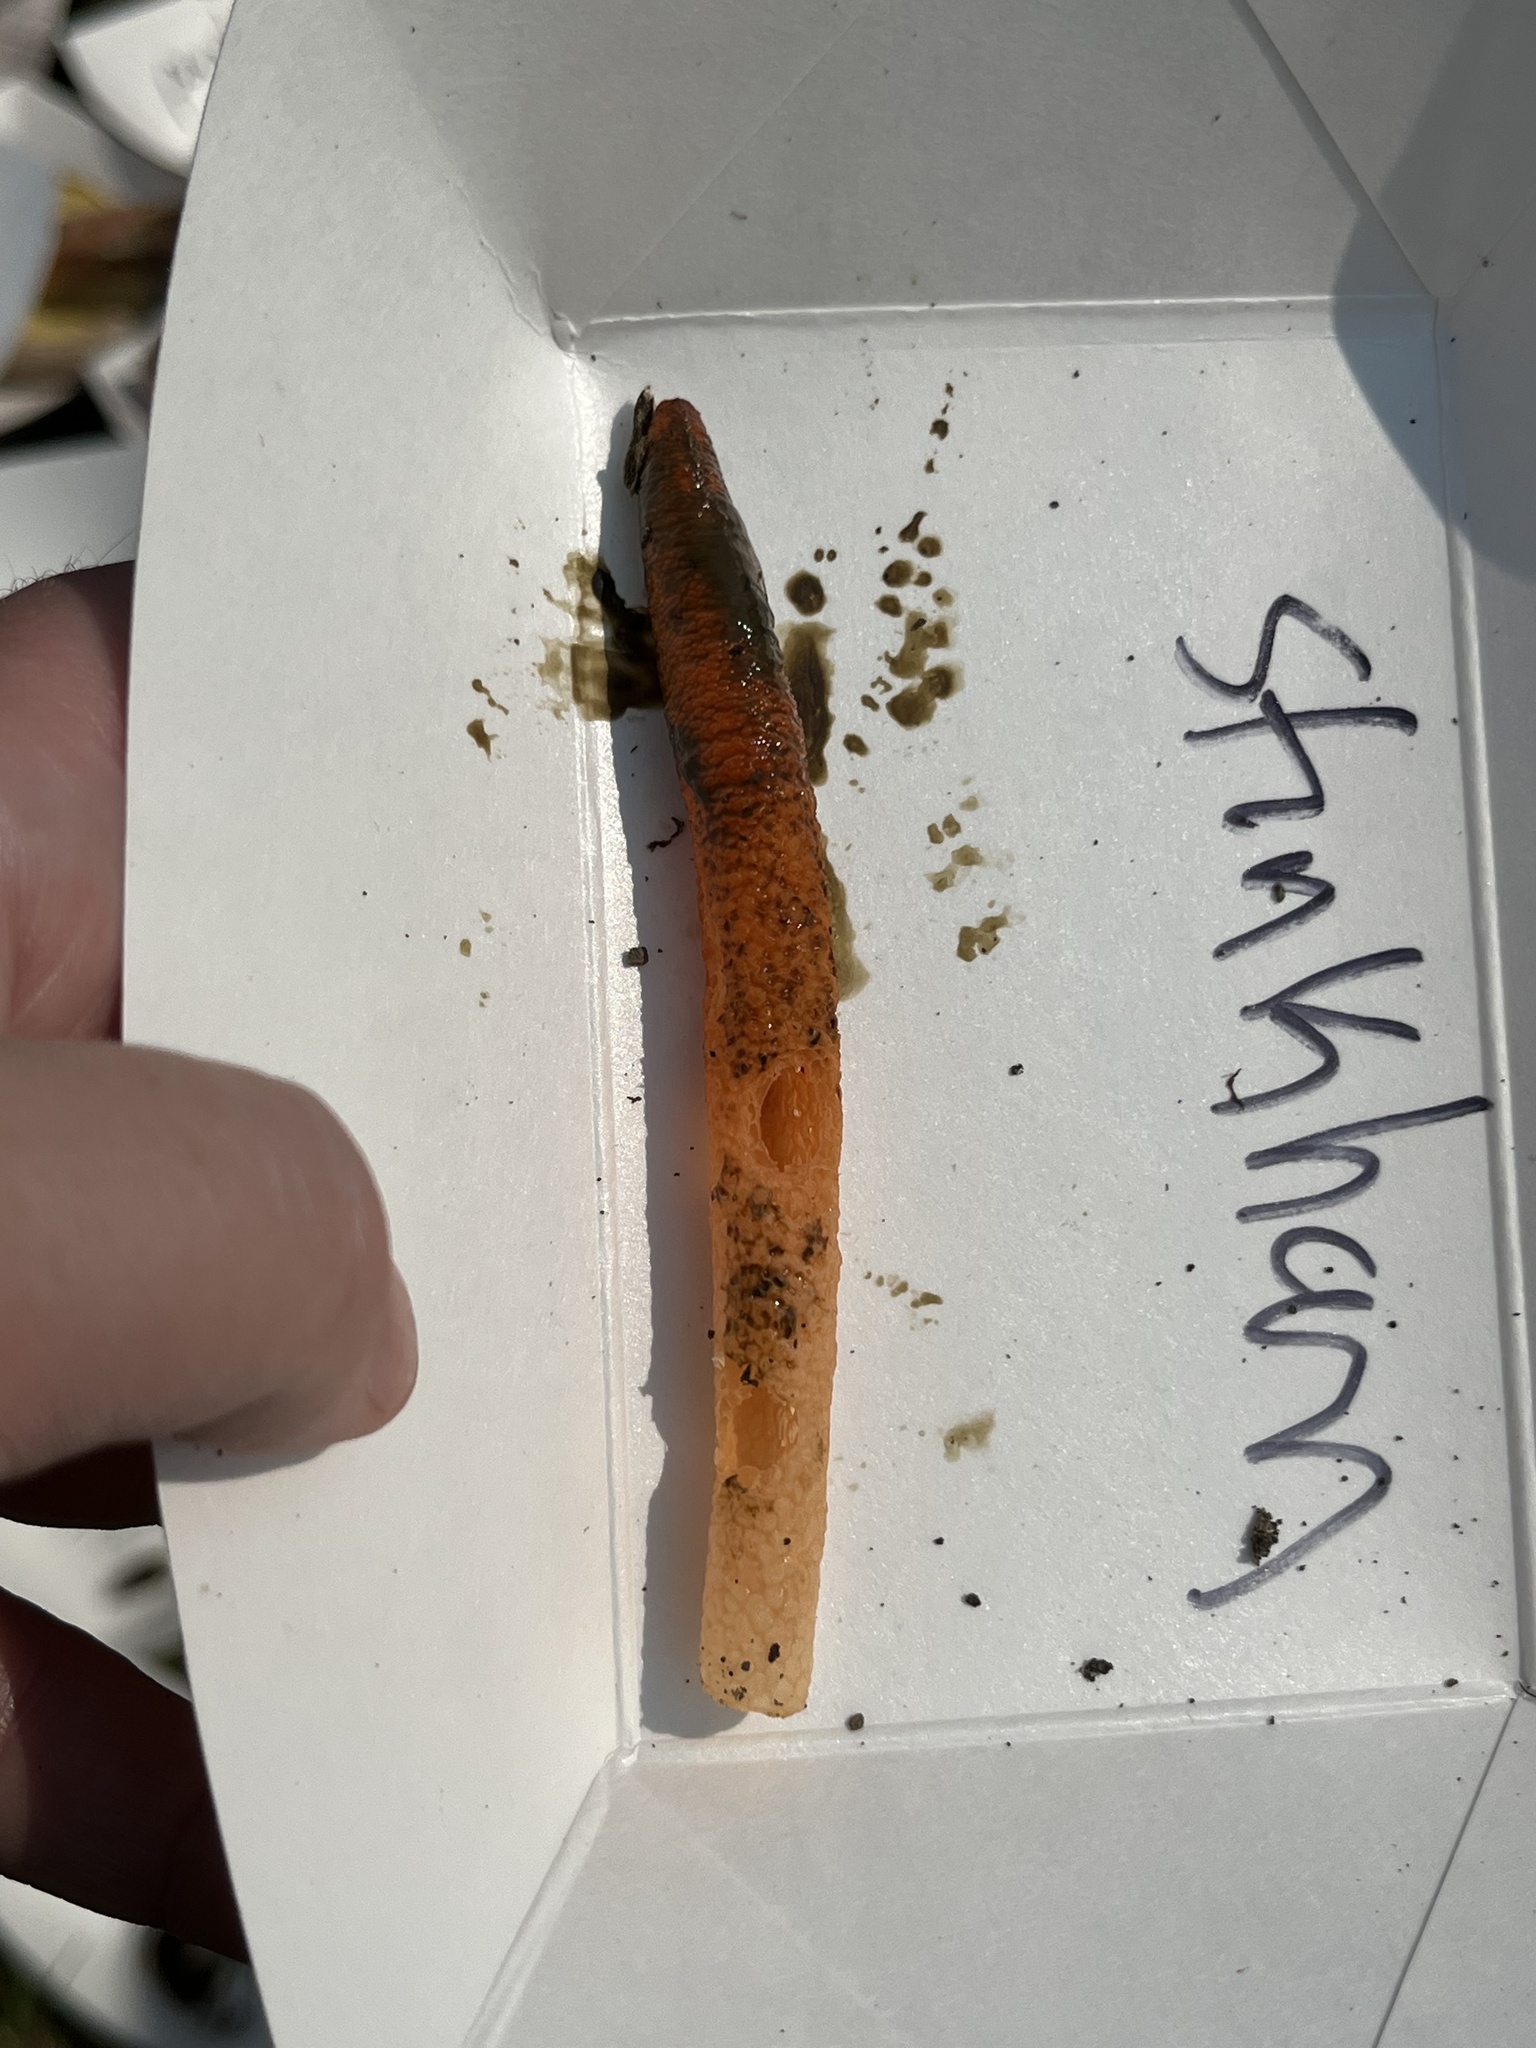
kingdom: Fungi
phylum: Basidiomycota
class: Agaricomycetes
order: Phallales
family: Phallaceae
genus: Mutinus
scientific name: Mutinus elegans
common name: Devil's dipstick
